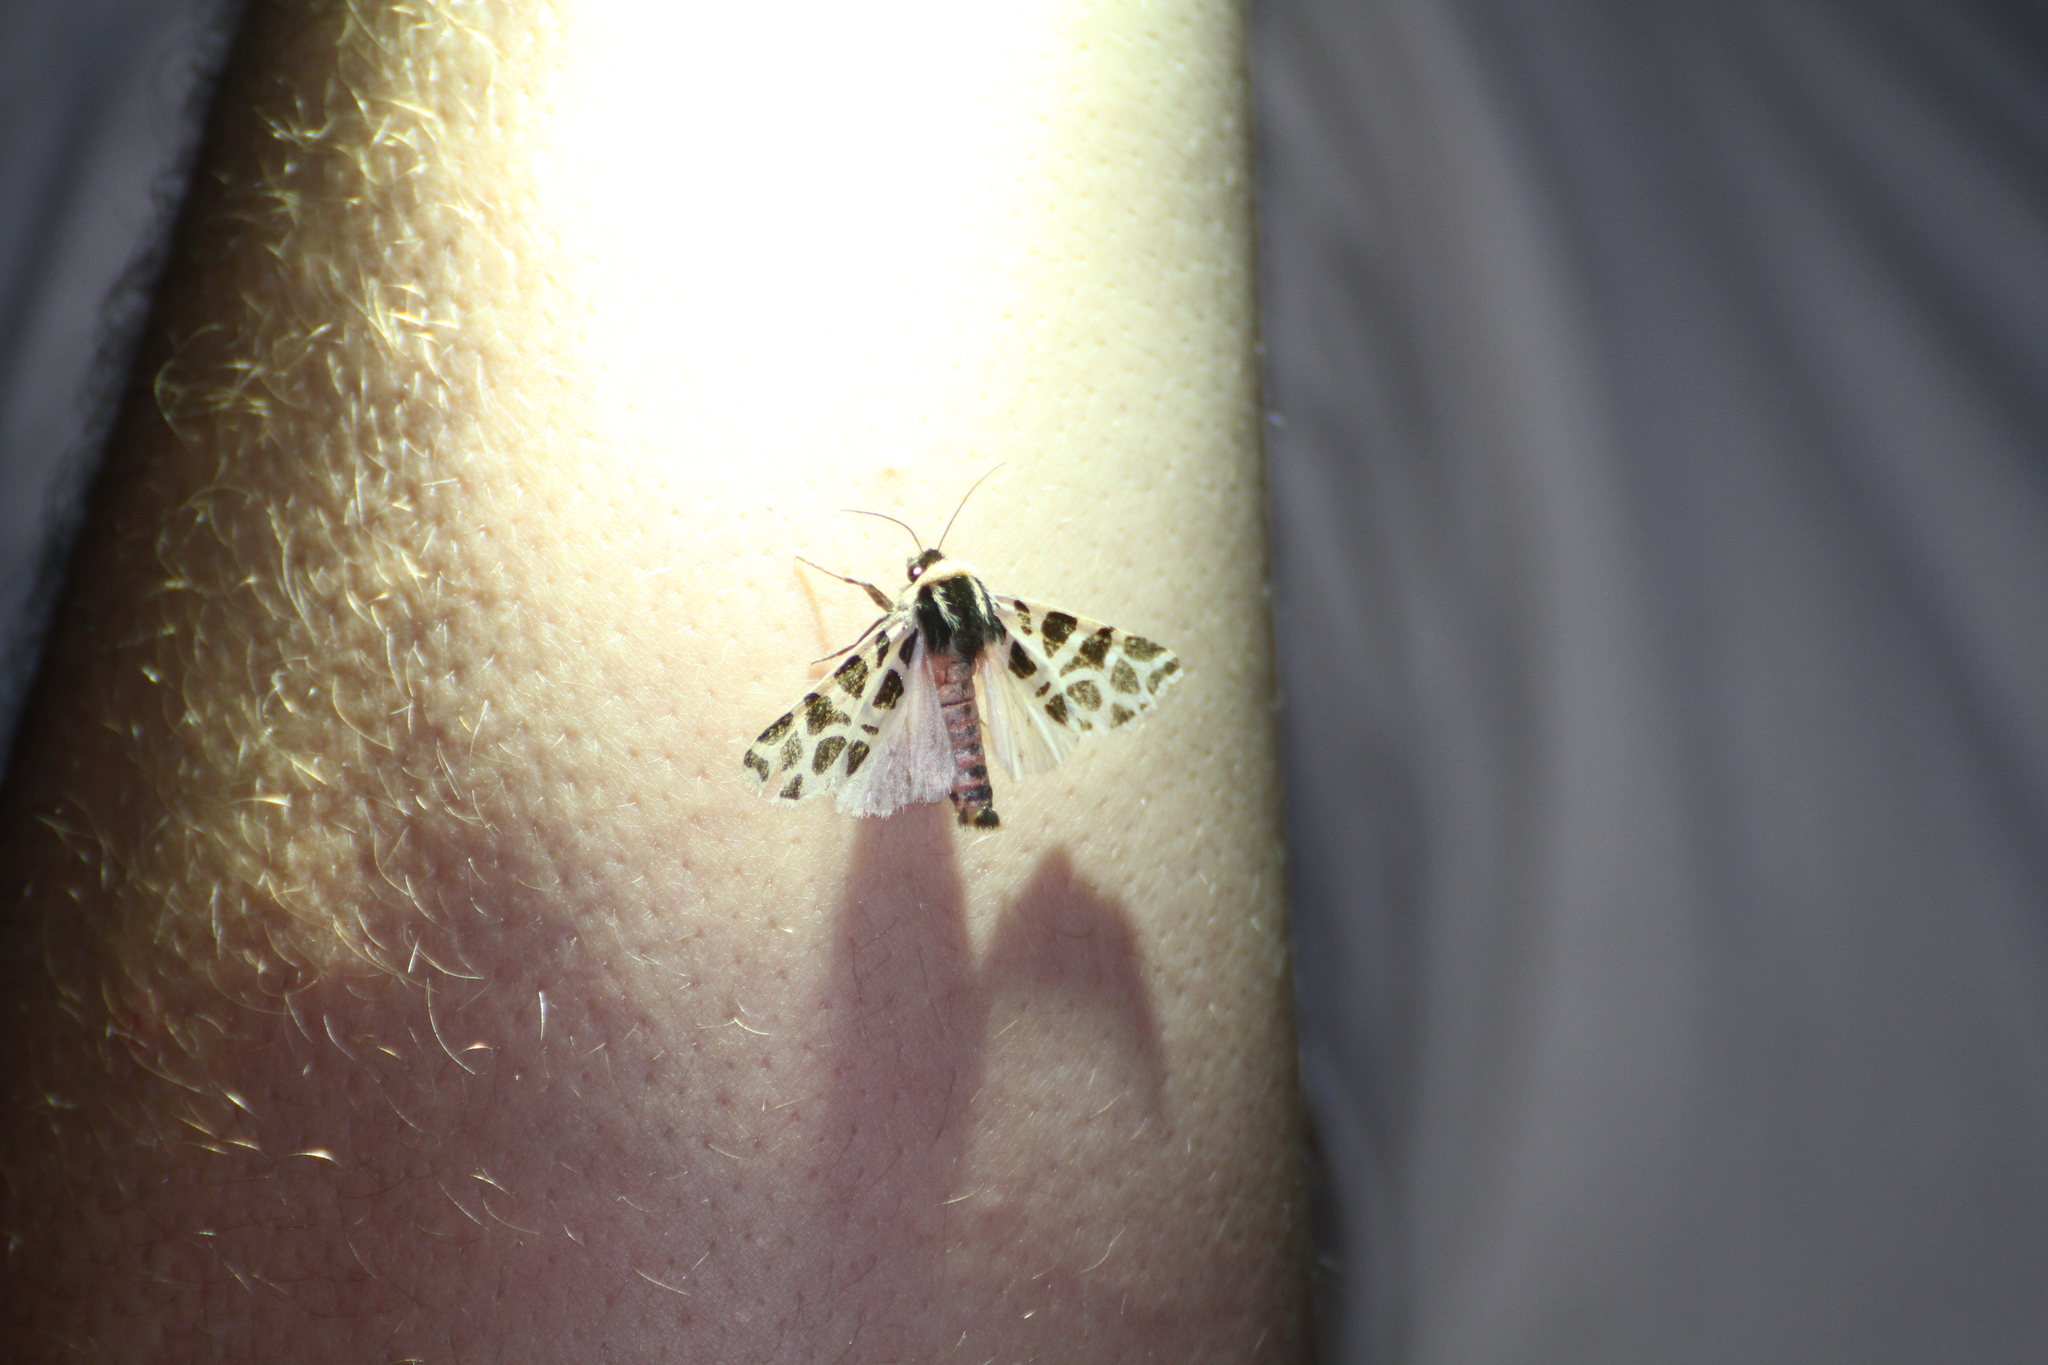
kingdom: Animalia
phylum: Arthropoda
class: Insecta
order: Lepidoptera
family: Erebidae
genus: Cymbalophora
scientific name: Cymbalophora pudica
